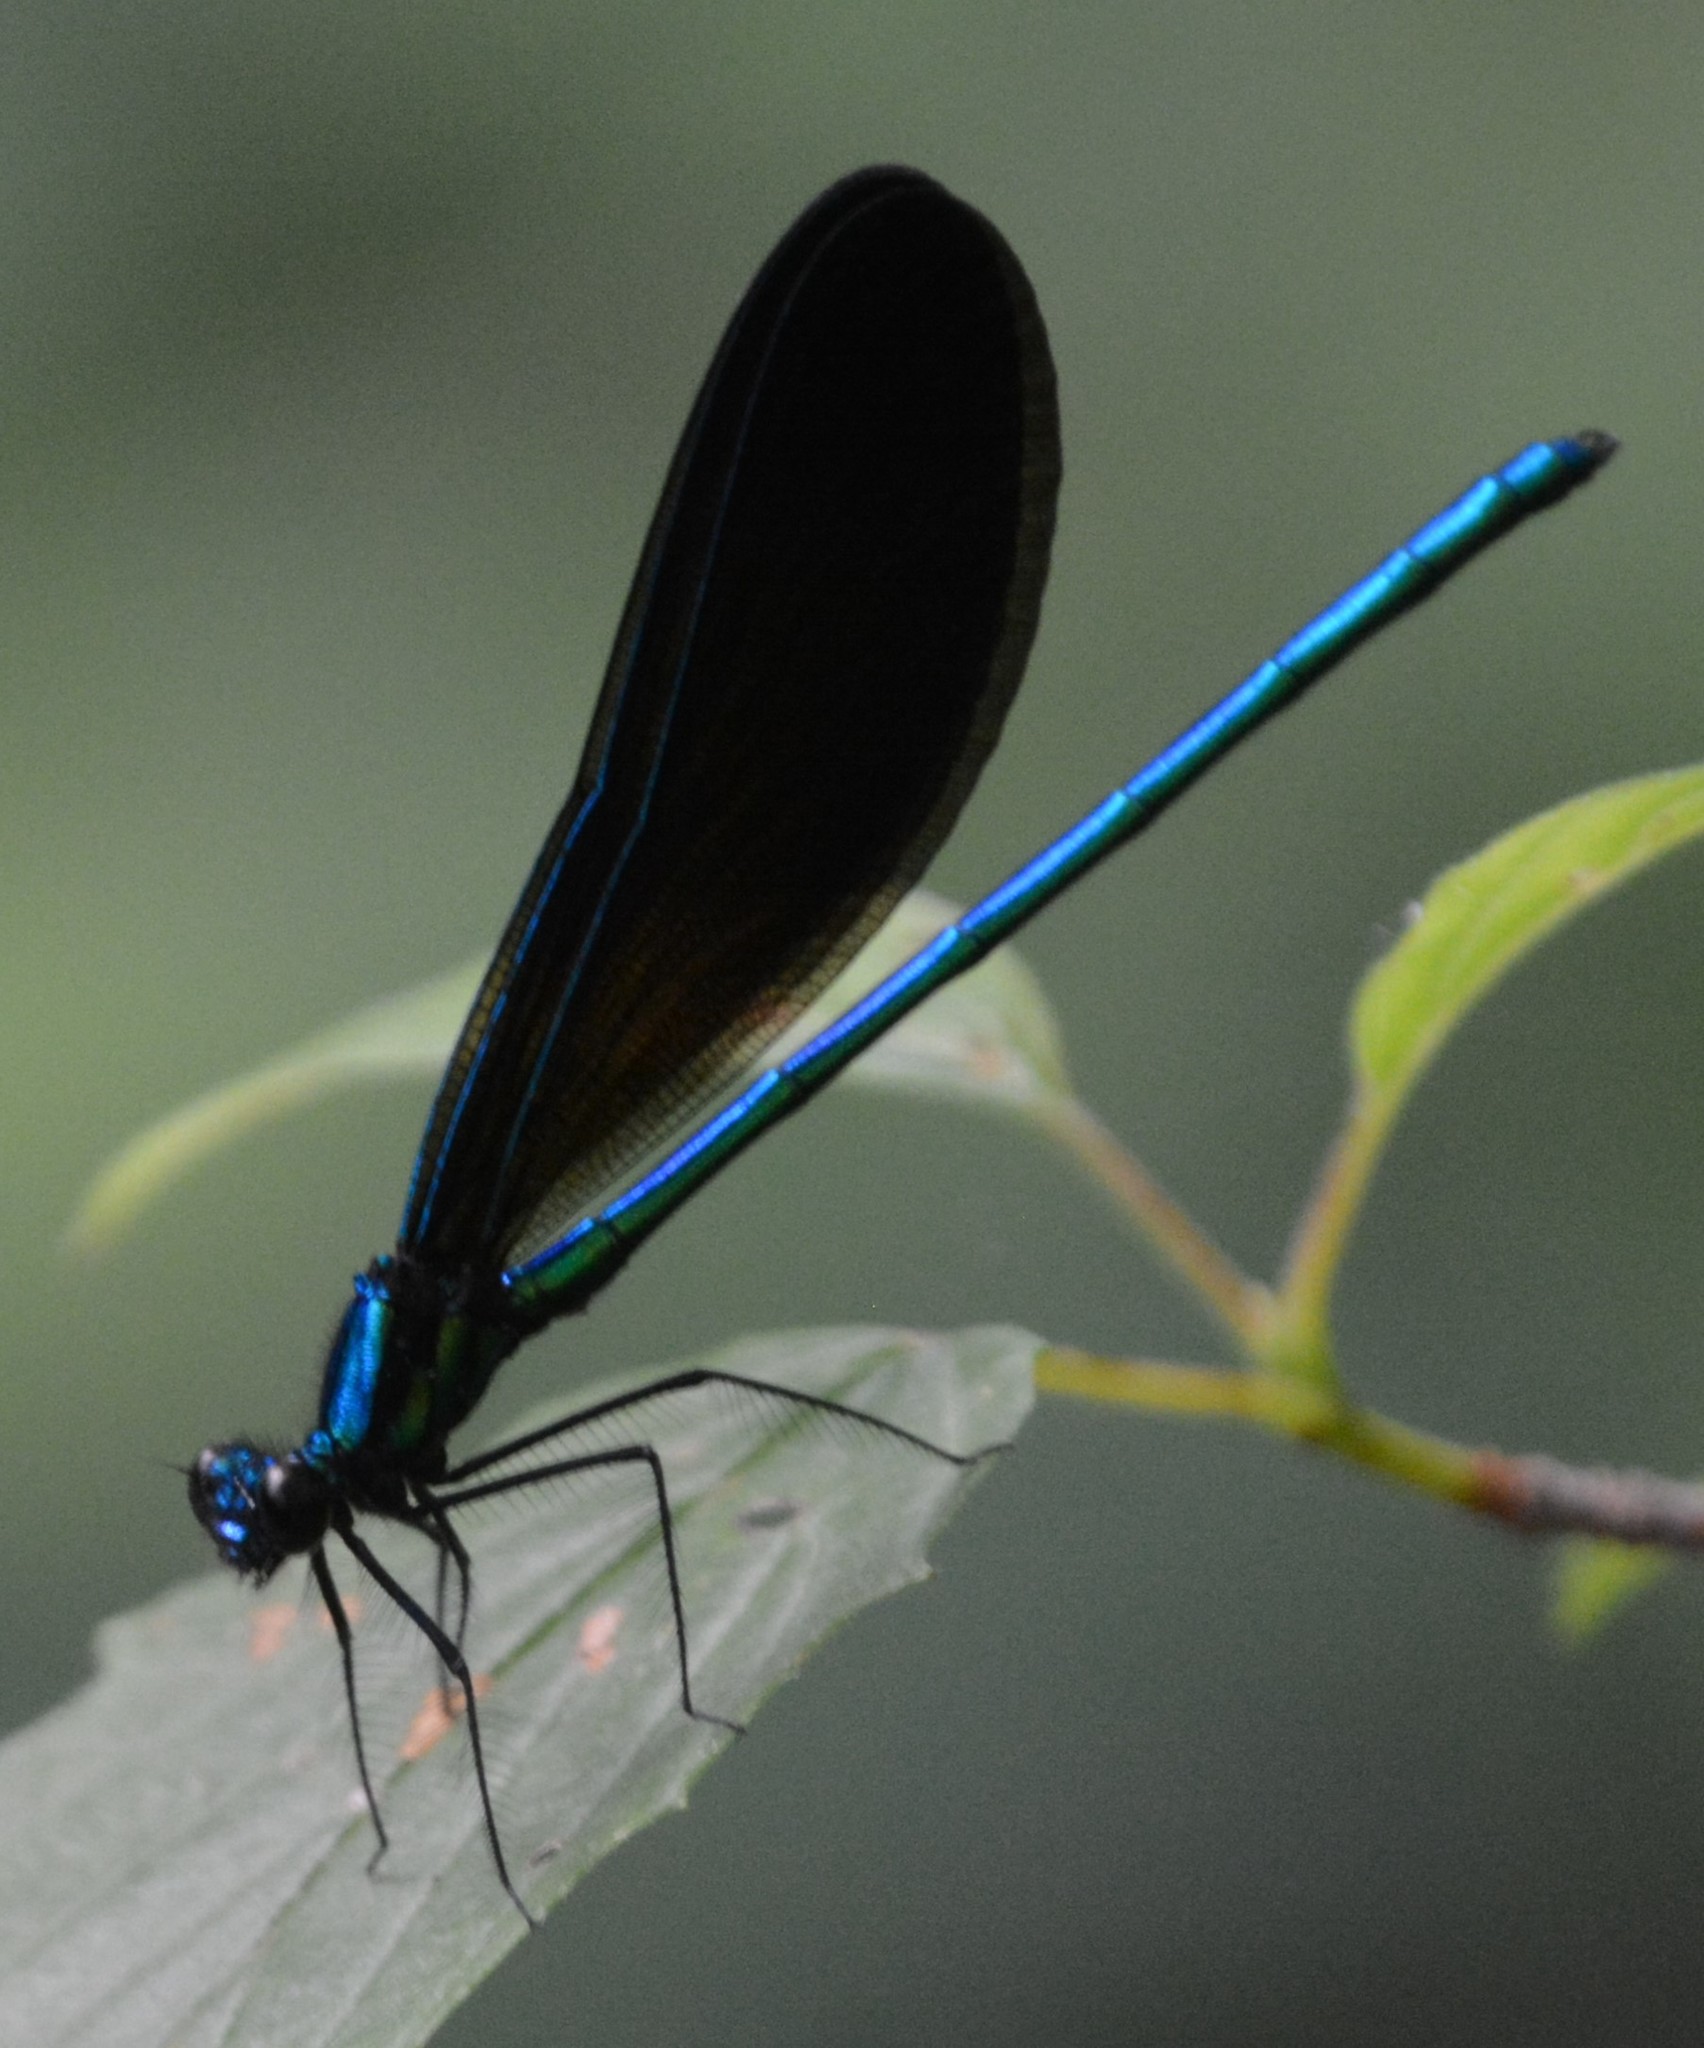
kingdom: Animalia
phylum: Arthropoda
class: Insecta
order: Odonata
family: Calopterygidae
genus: Calopteryx
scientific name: Calopteryx maculata
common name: Ebony jewelwing
